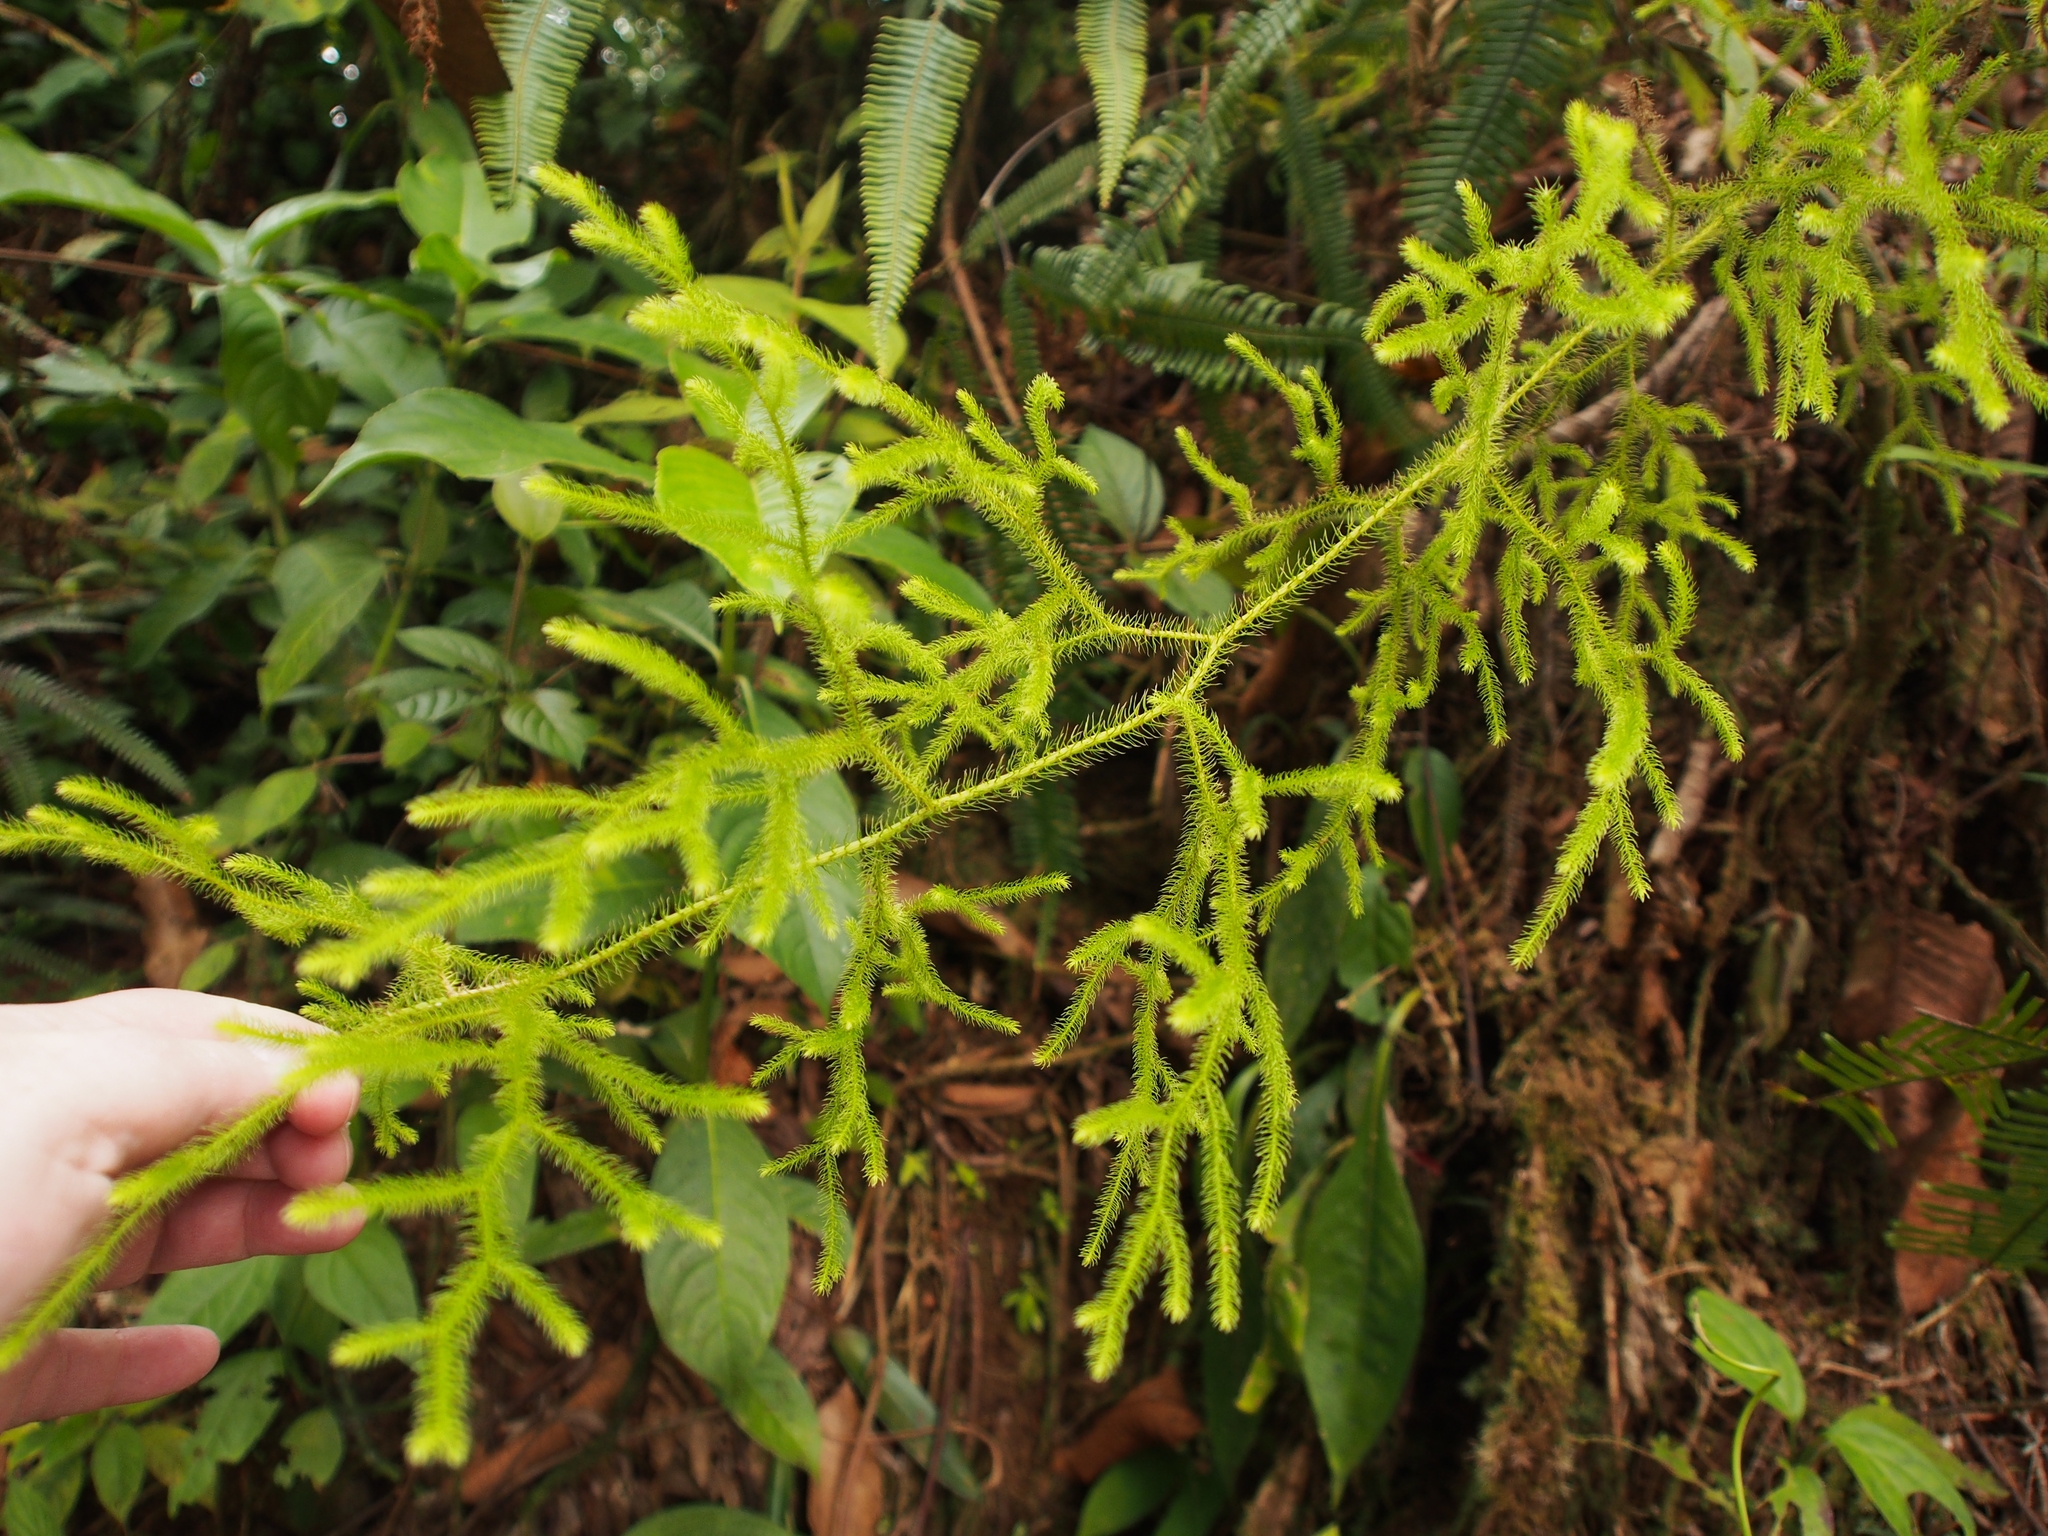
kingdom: Plantae
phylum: Tracheophyta
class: Lycopodiopsida
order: Lycopodiales
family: Lycopodiaceae
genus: Palhinhaea
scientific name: Palhinhaea cernua
